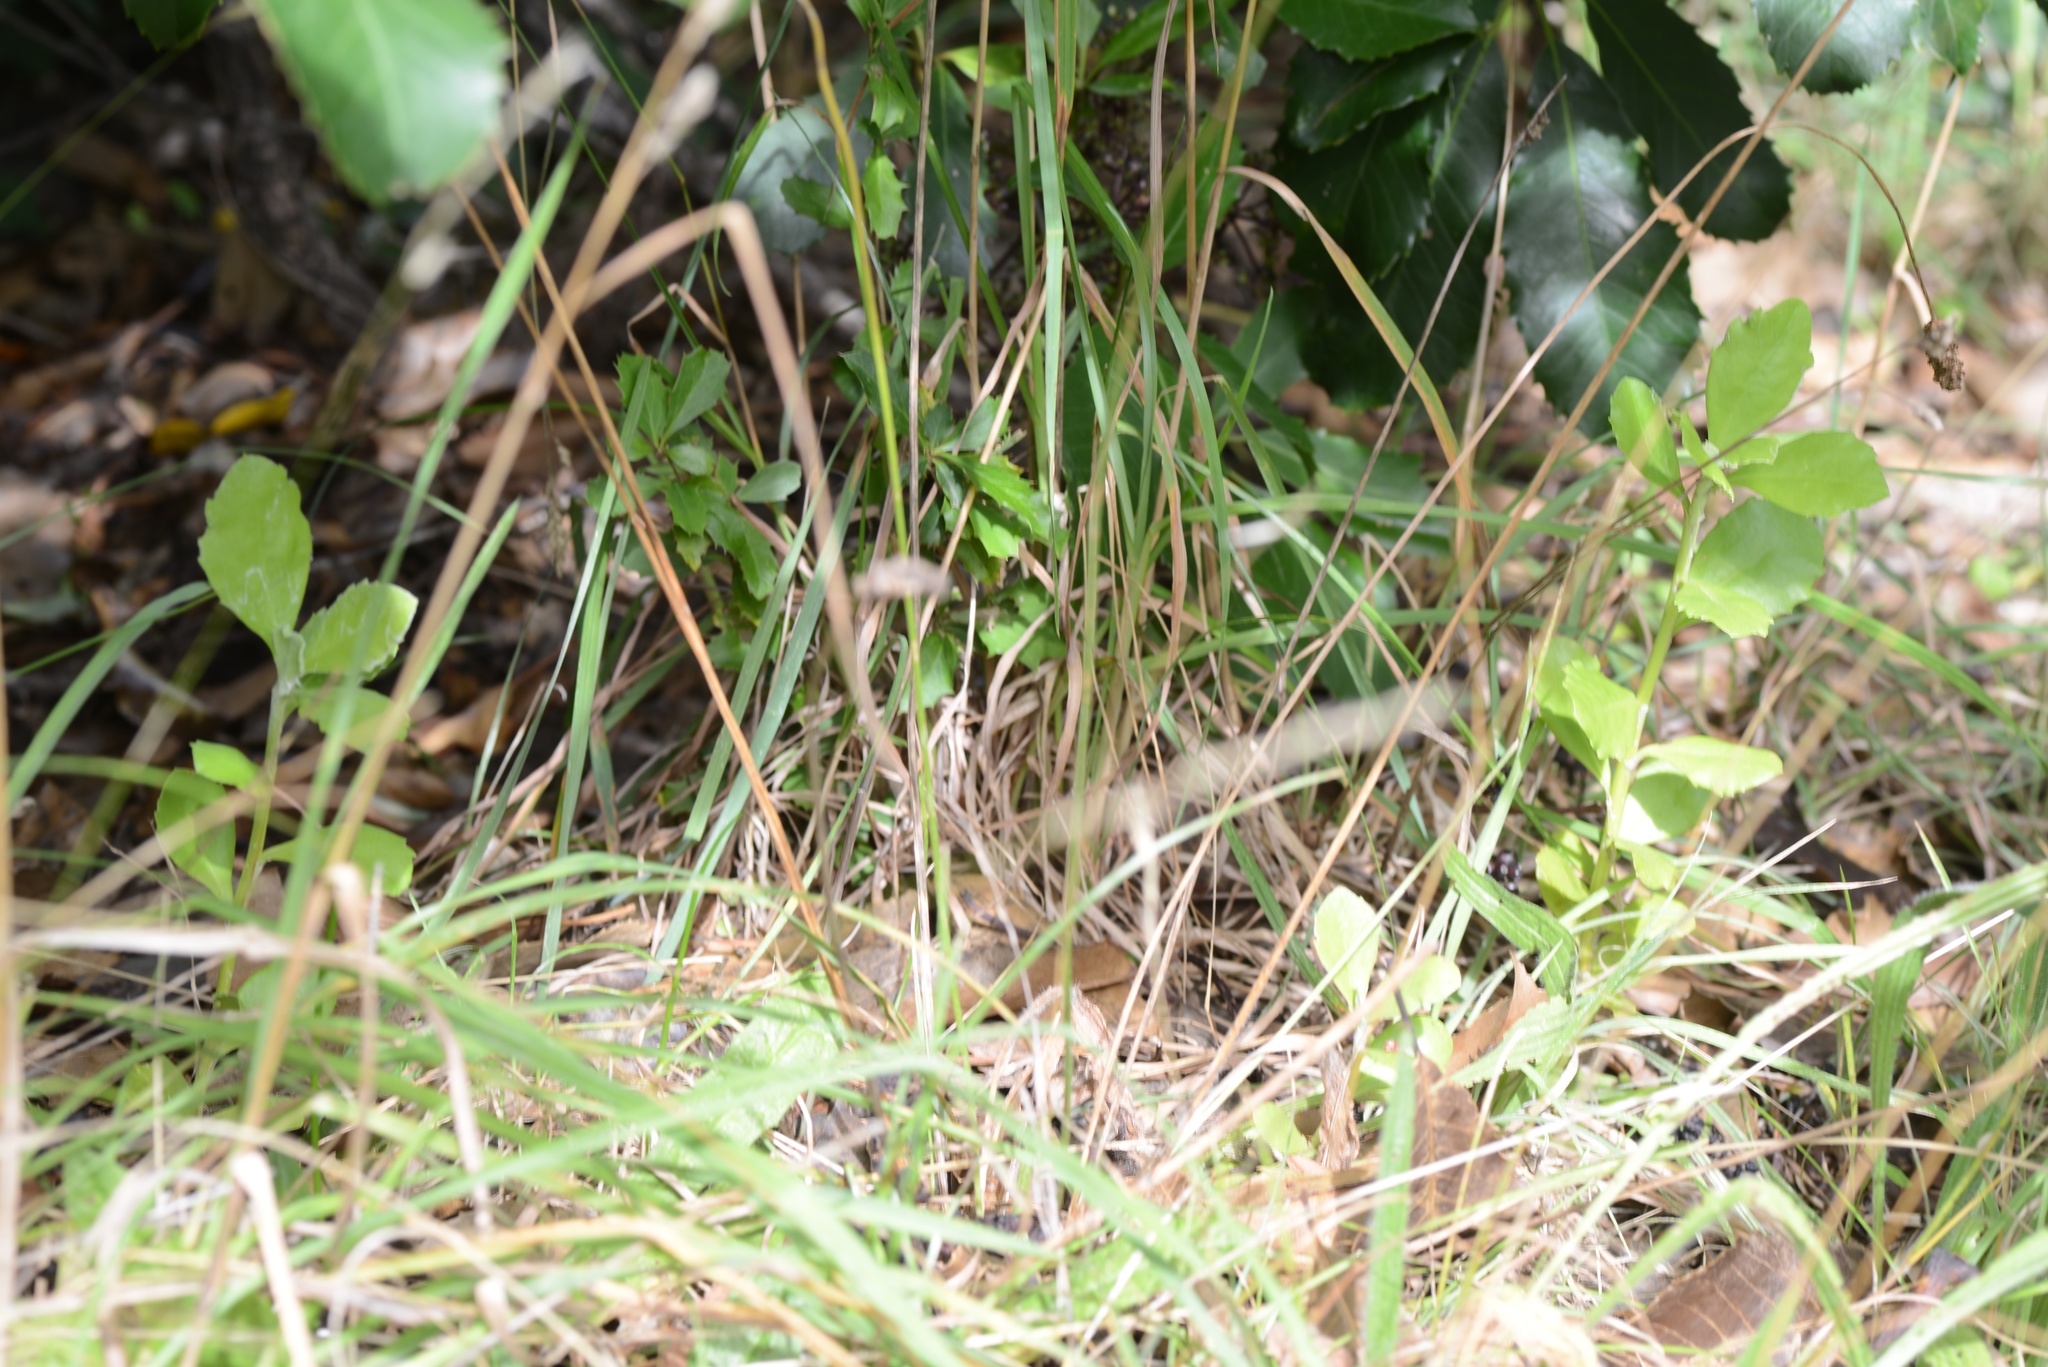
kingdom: Plantae
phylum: Tracheophyta
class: Magnoliopsida
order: Asterales
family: Asteraceae
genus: Osteospermum
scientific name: Osteospermum moniliferum
